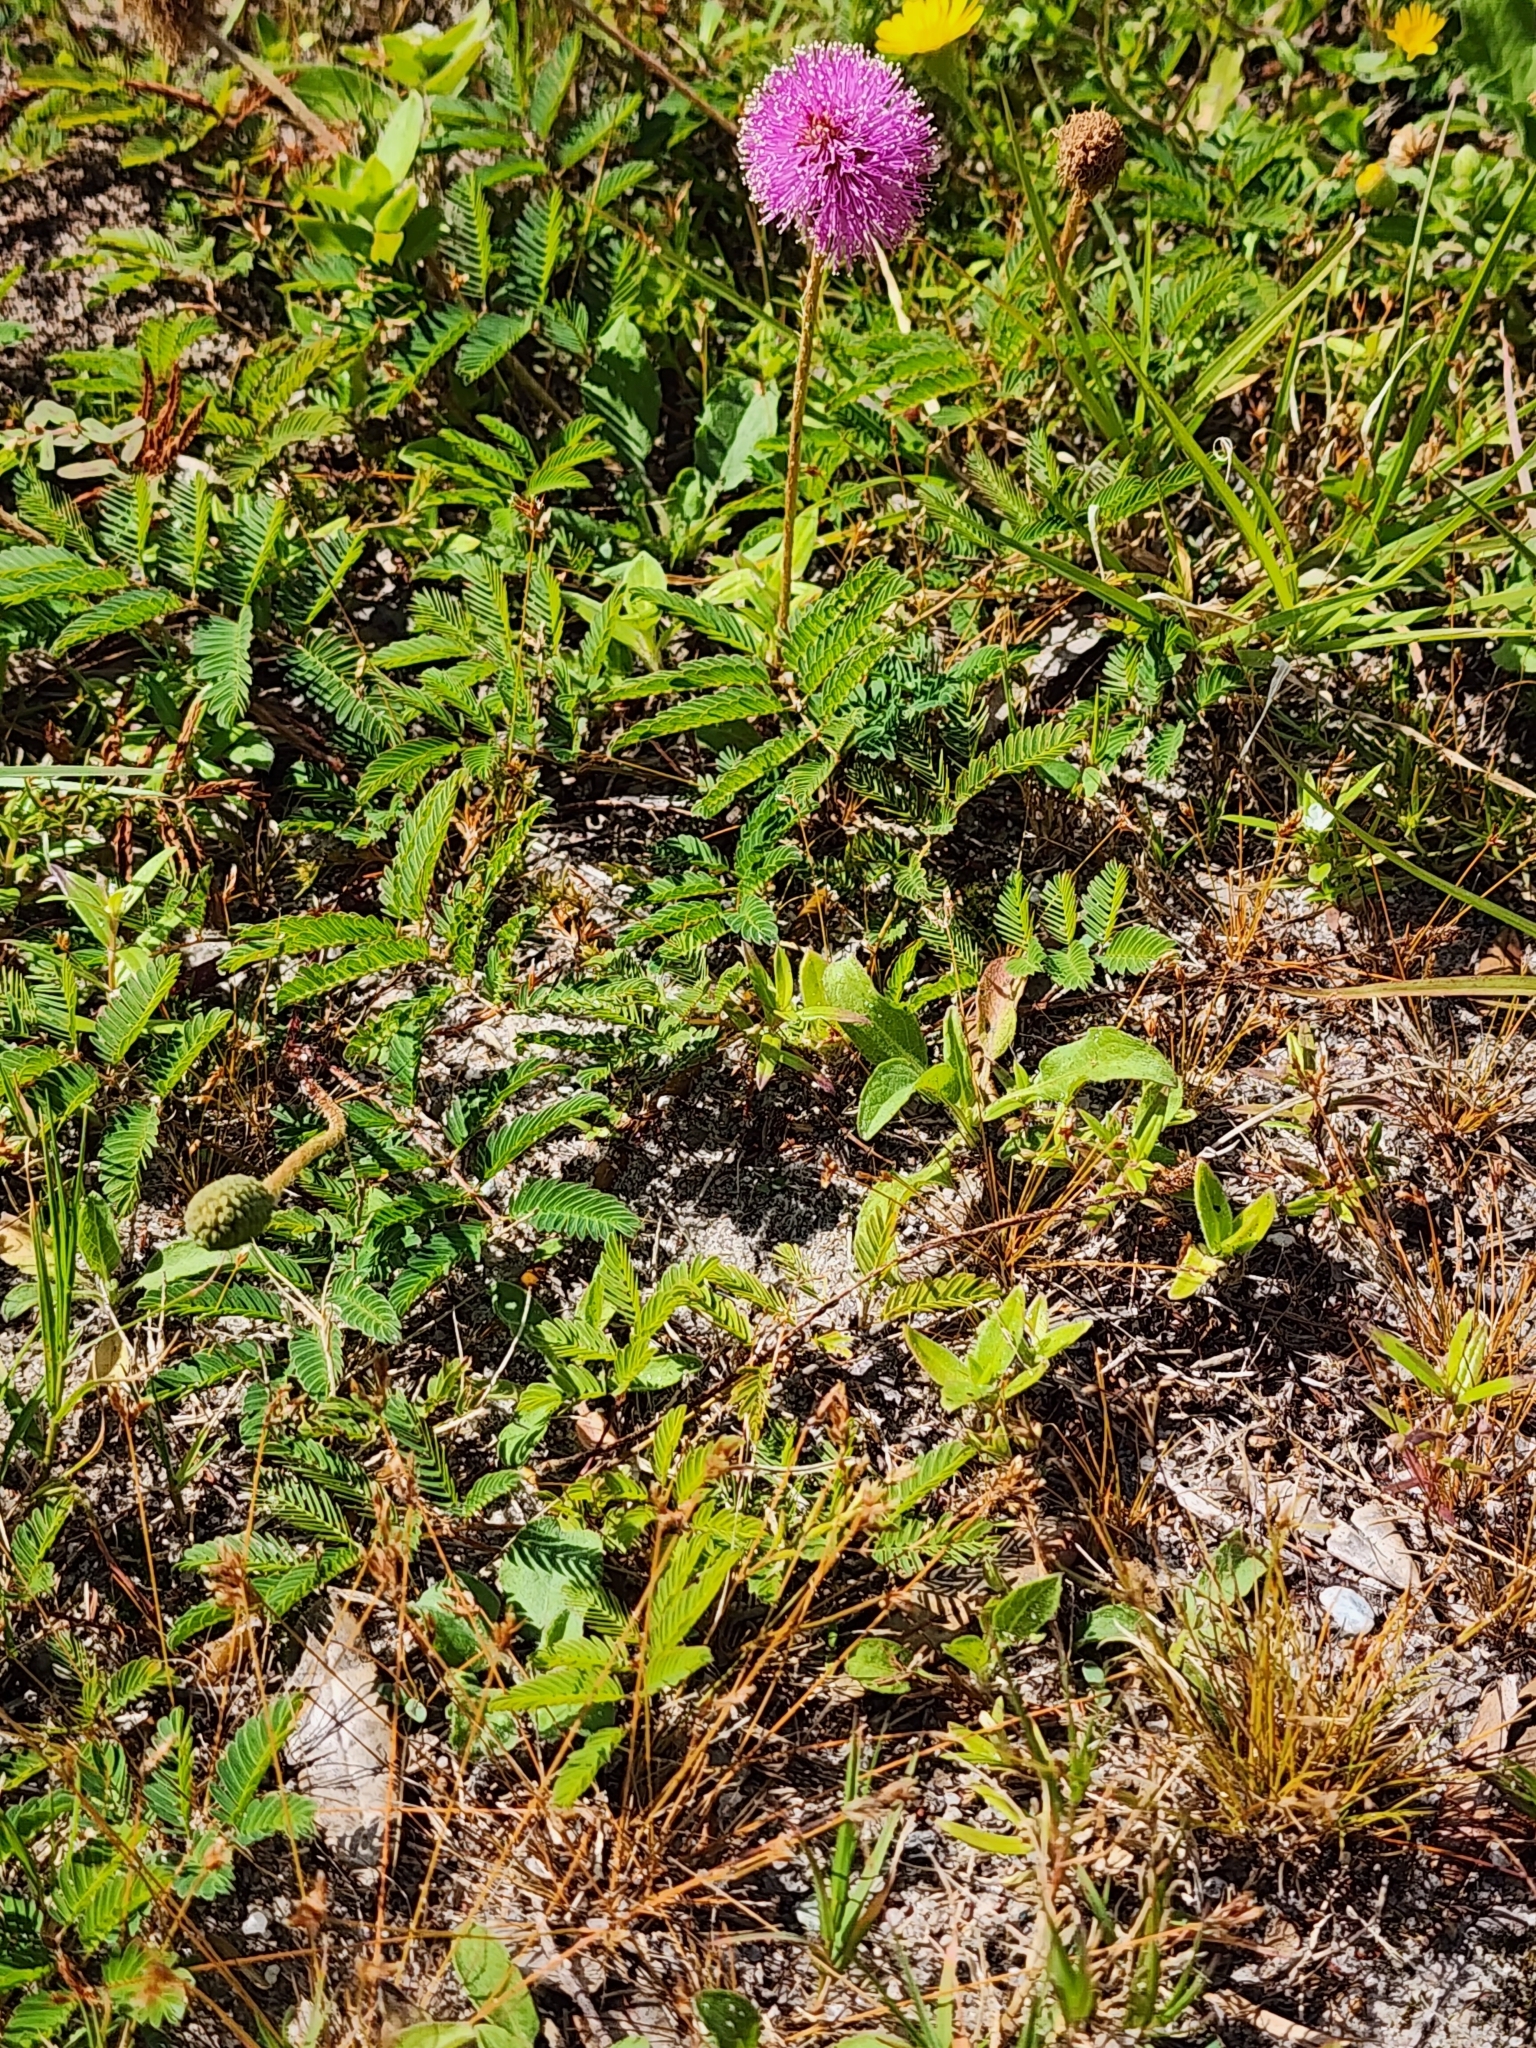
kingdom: Plantae
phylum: Tracheophyta
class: Magnoliopsida
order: Asterales
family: Asteraceae
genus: Heterotheca
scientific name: Heterotheca subaxillaris
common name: Camphorweed
